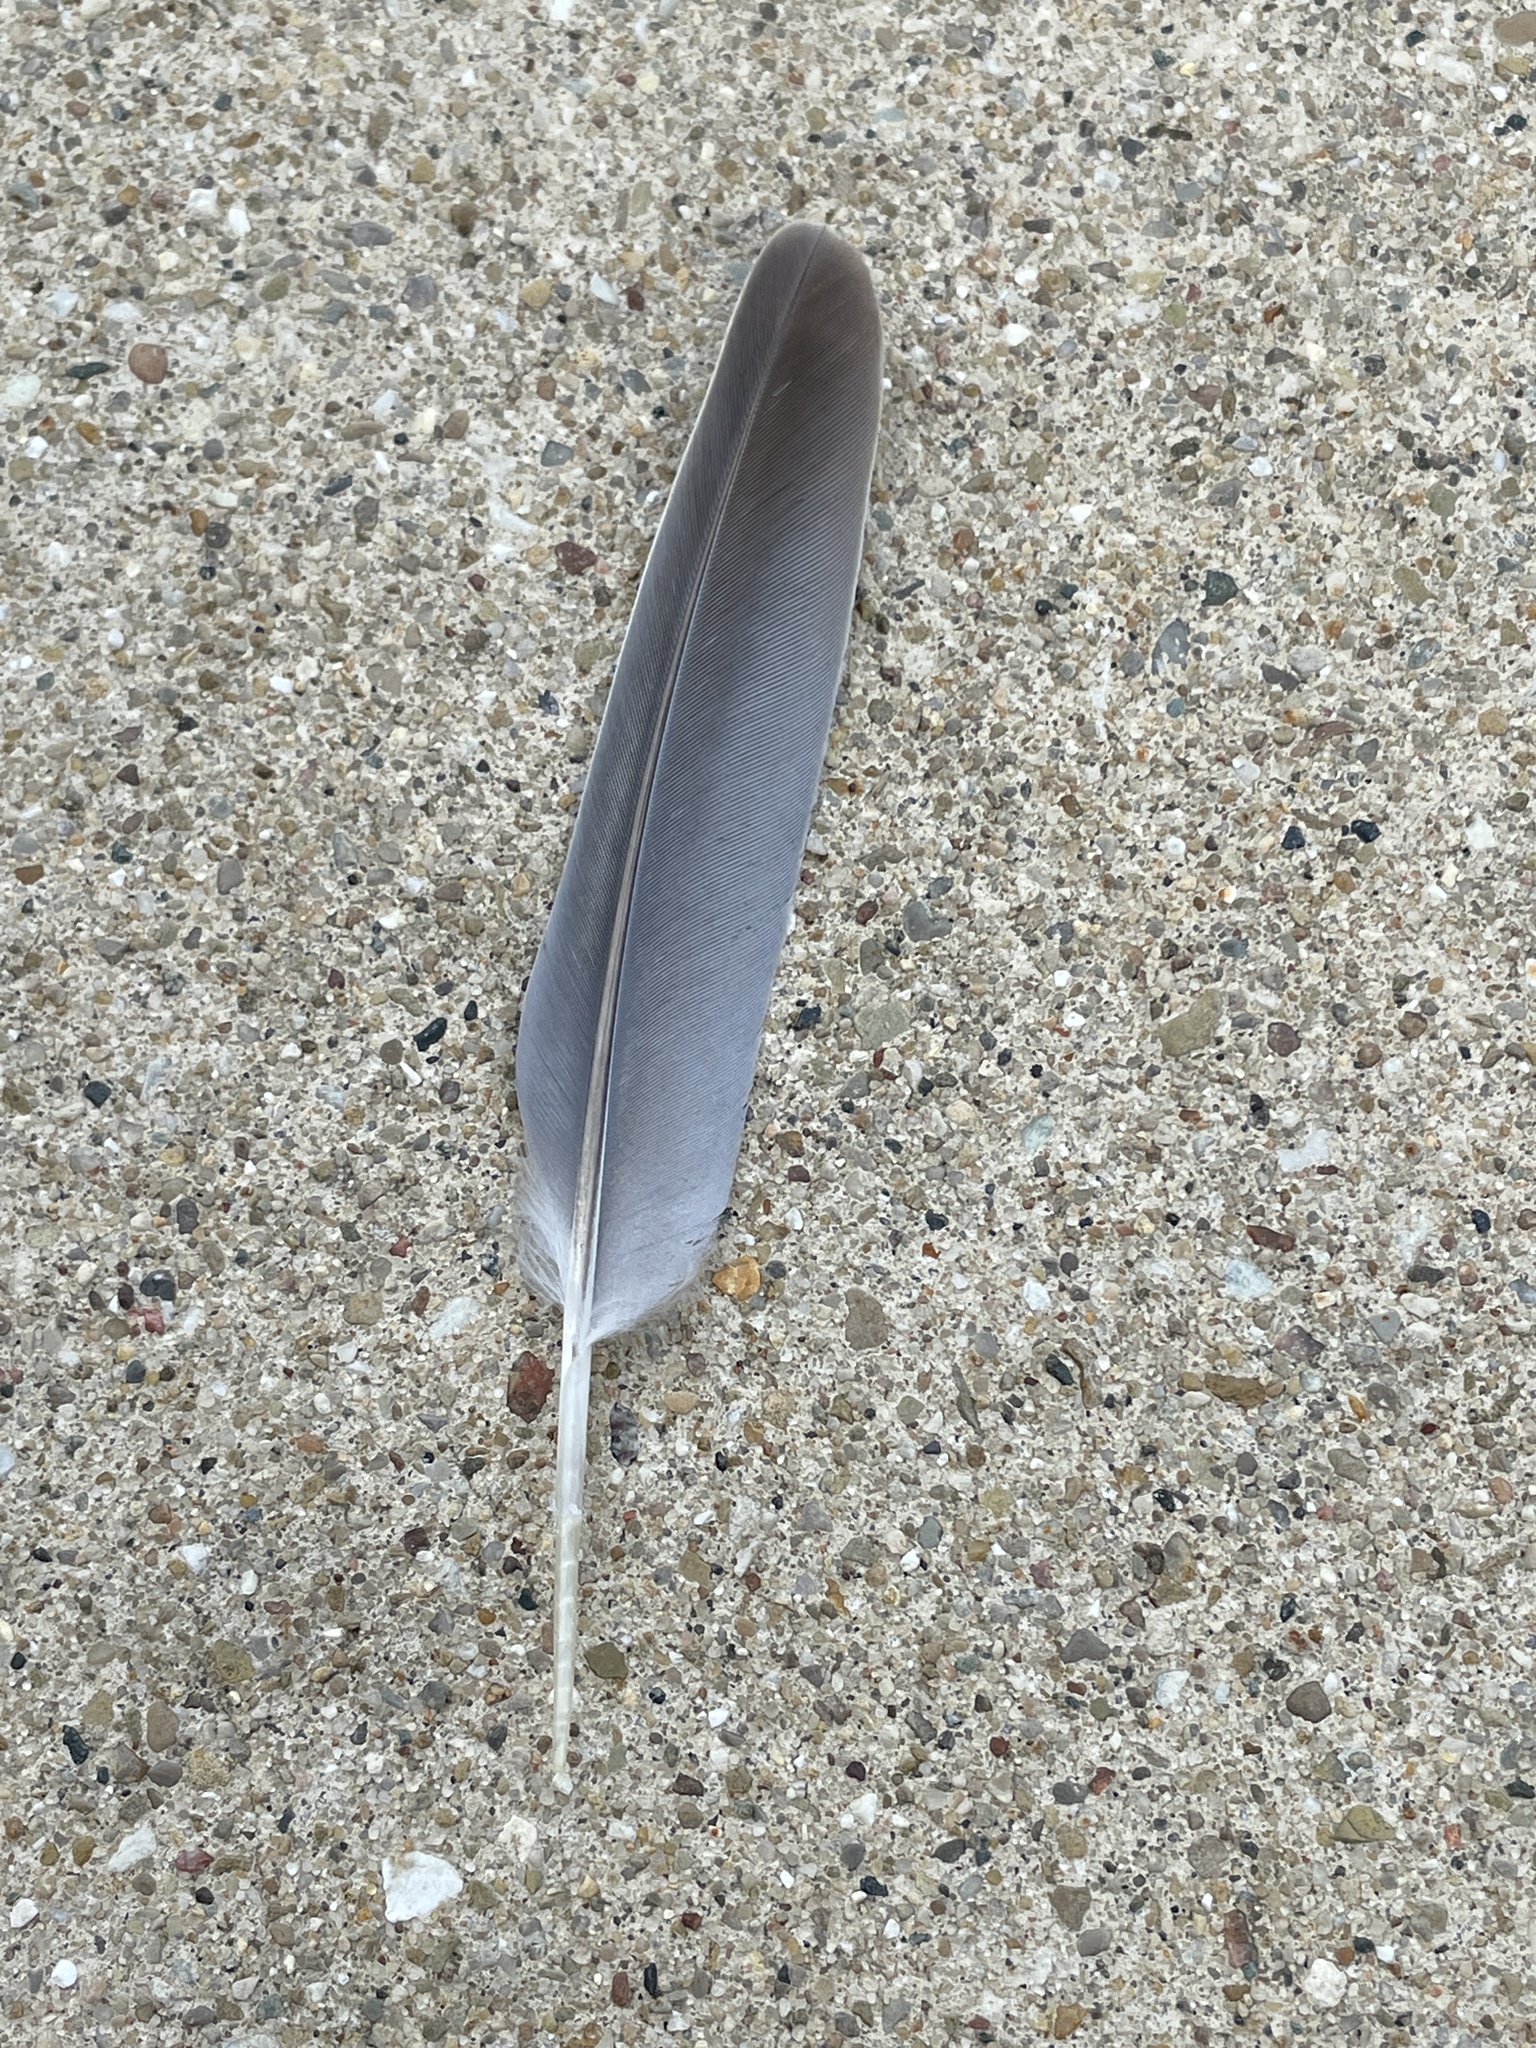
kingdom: Animalia
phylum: Chordata
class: Aves
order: Columbiformes
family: Columbidae
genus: Zenaida
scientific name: Zenaida macroura
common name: Mourning dove
